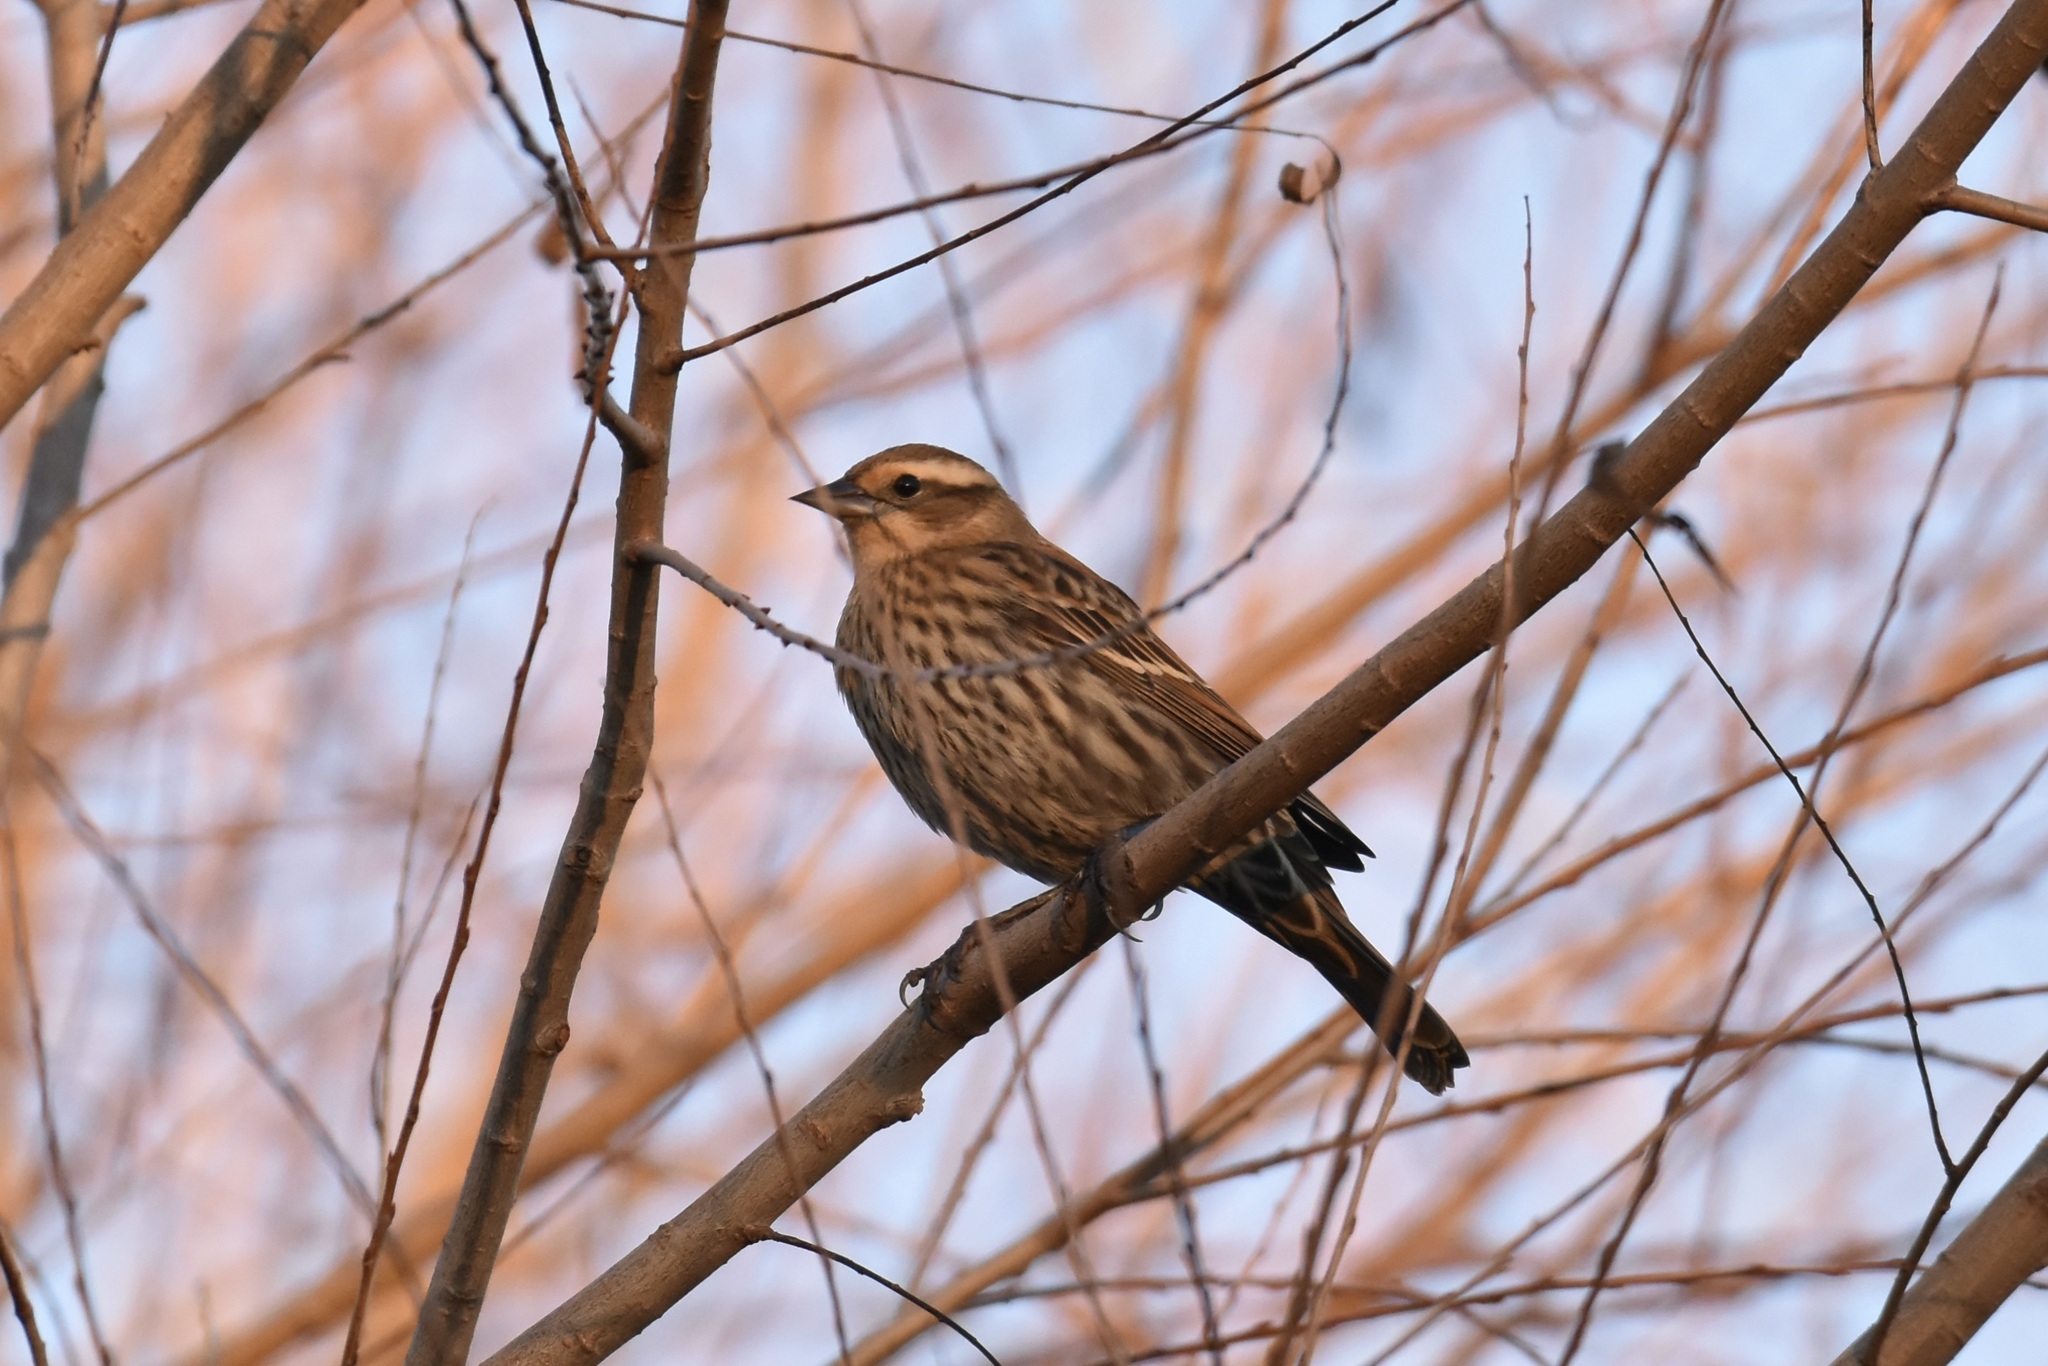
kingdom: Animalia
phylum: Chordata
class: Aves
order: Passeriformes
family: Icteridae
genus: Agelaius
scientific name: Agelaius phoeniceus
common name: Red-winged blackbird
